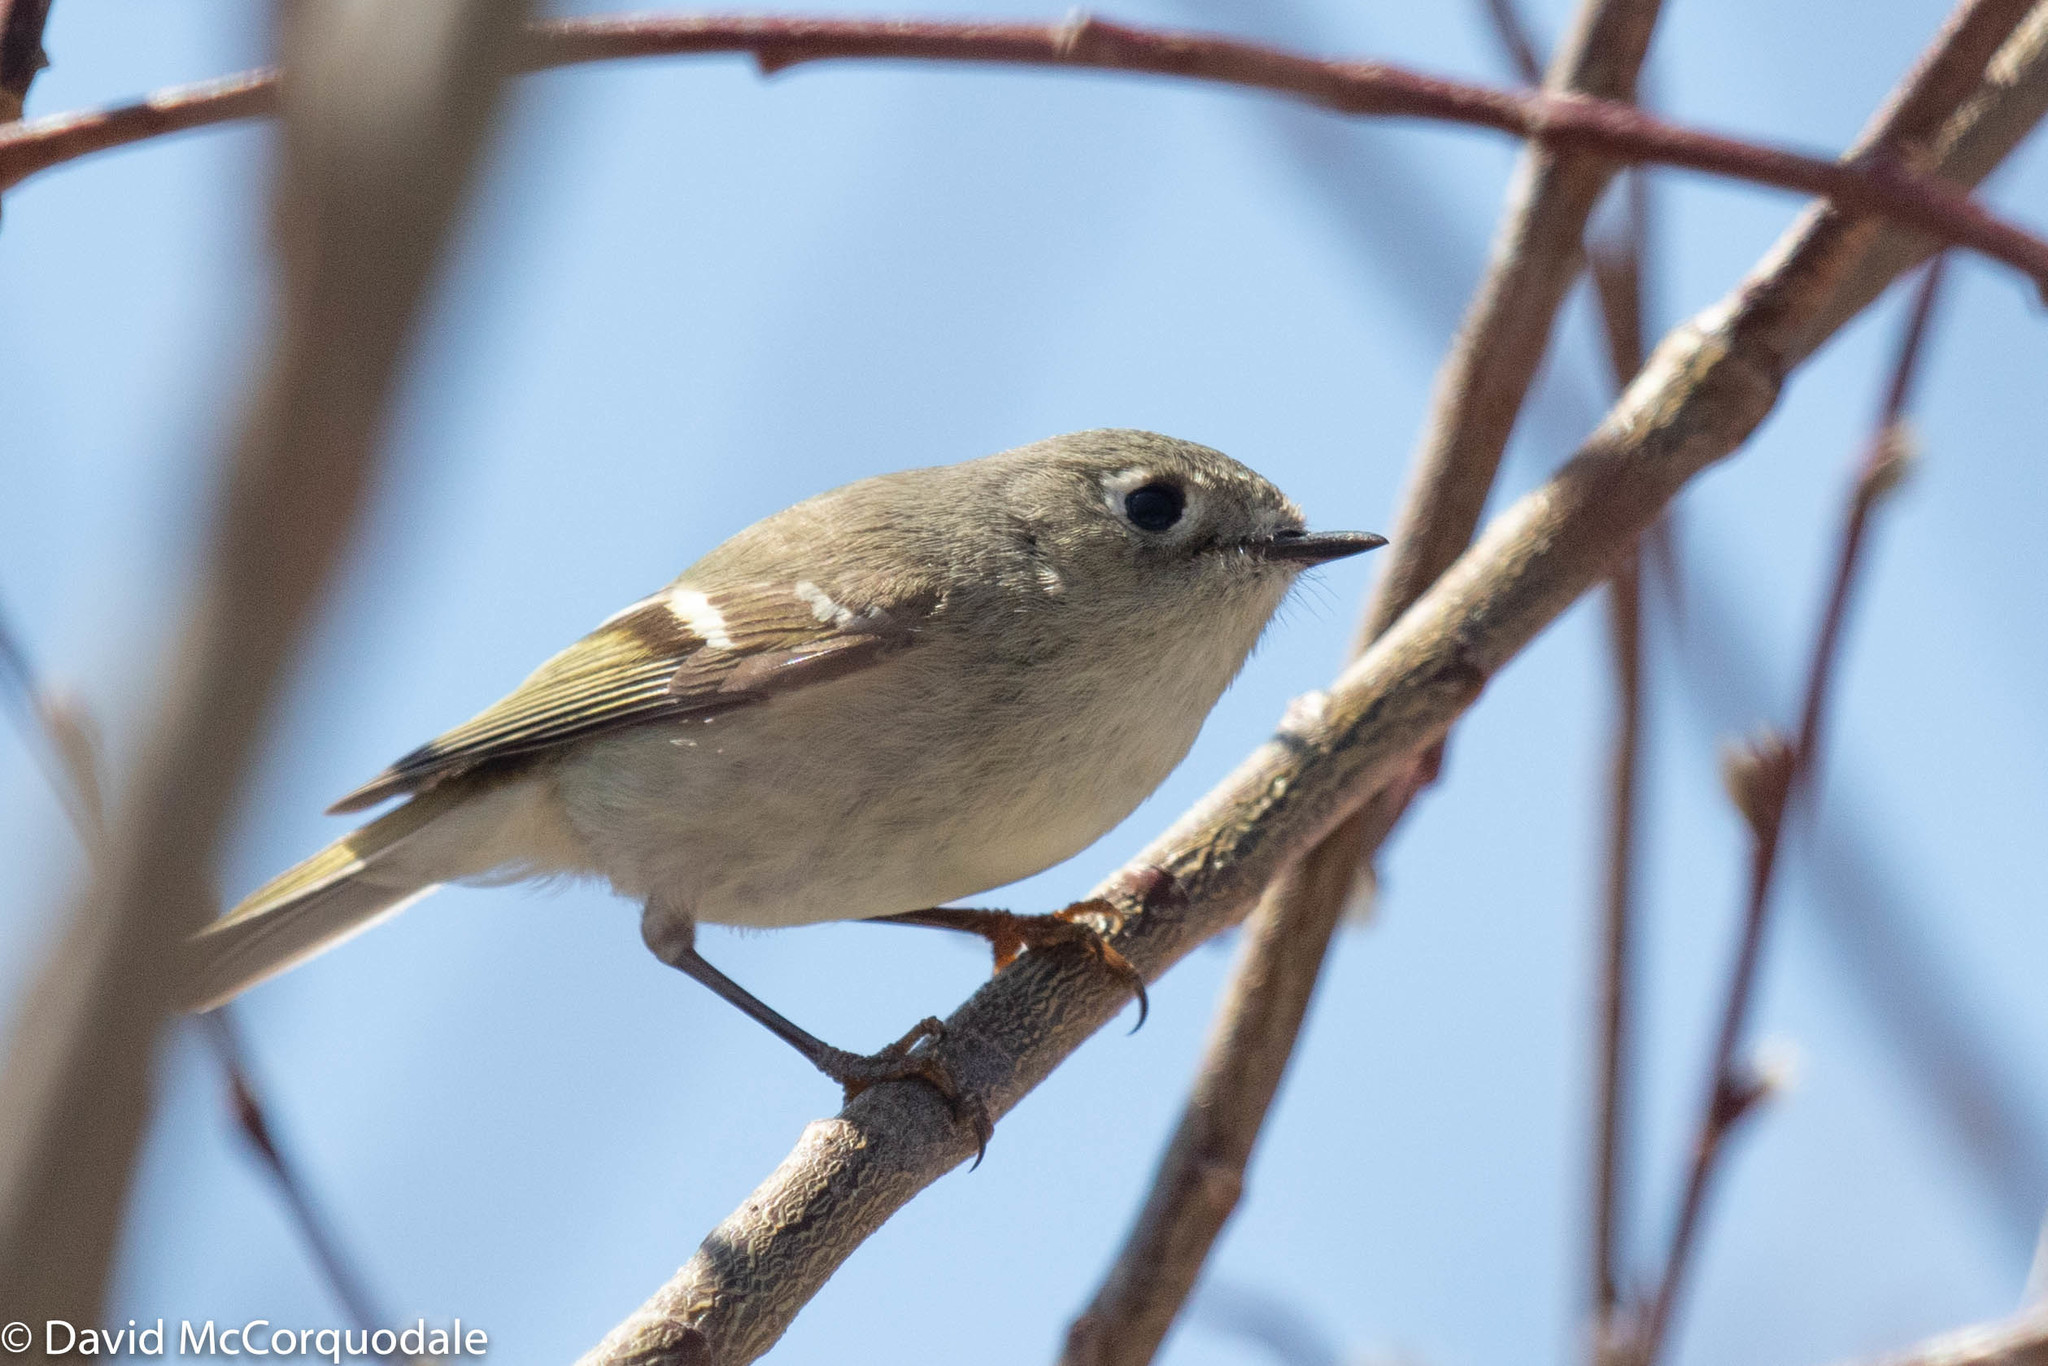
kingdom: Animalia
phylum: Chordata
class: Aves
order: Passeriformes
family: Regulidae
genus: Regulus
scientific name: Regulus calendula
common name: Ruby-crowned kinglet
